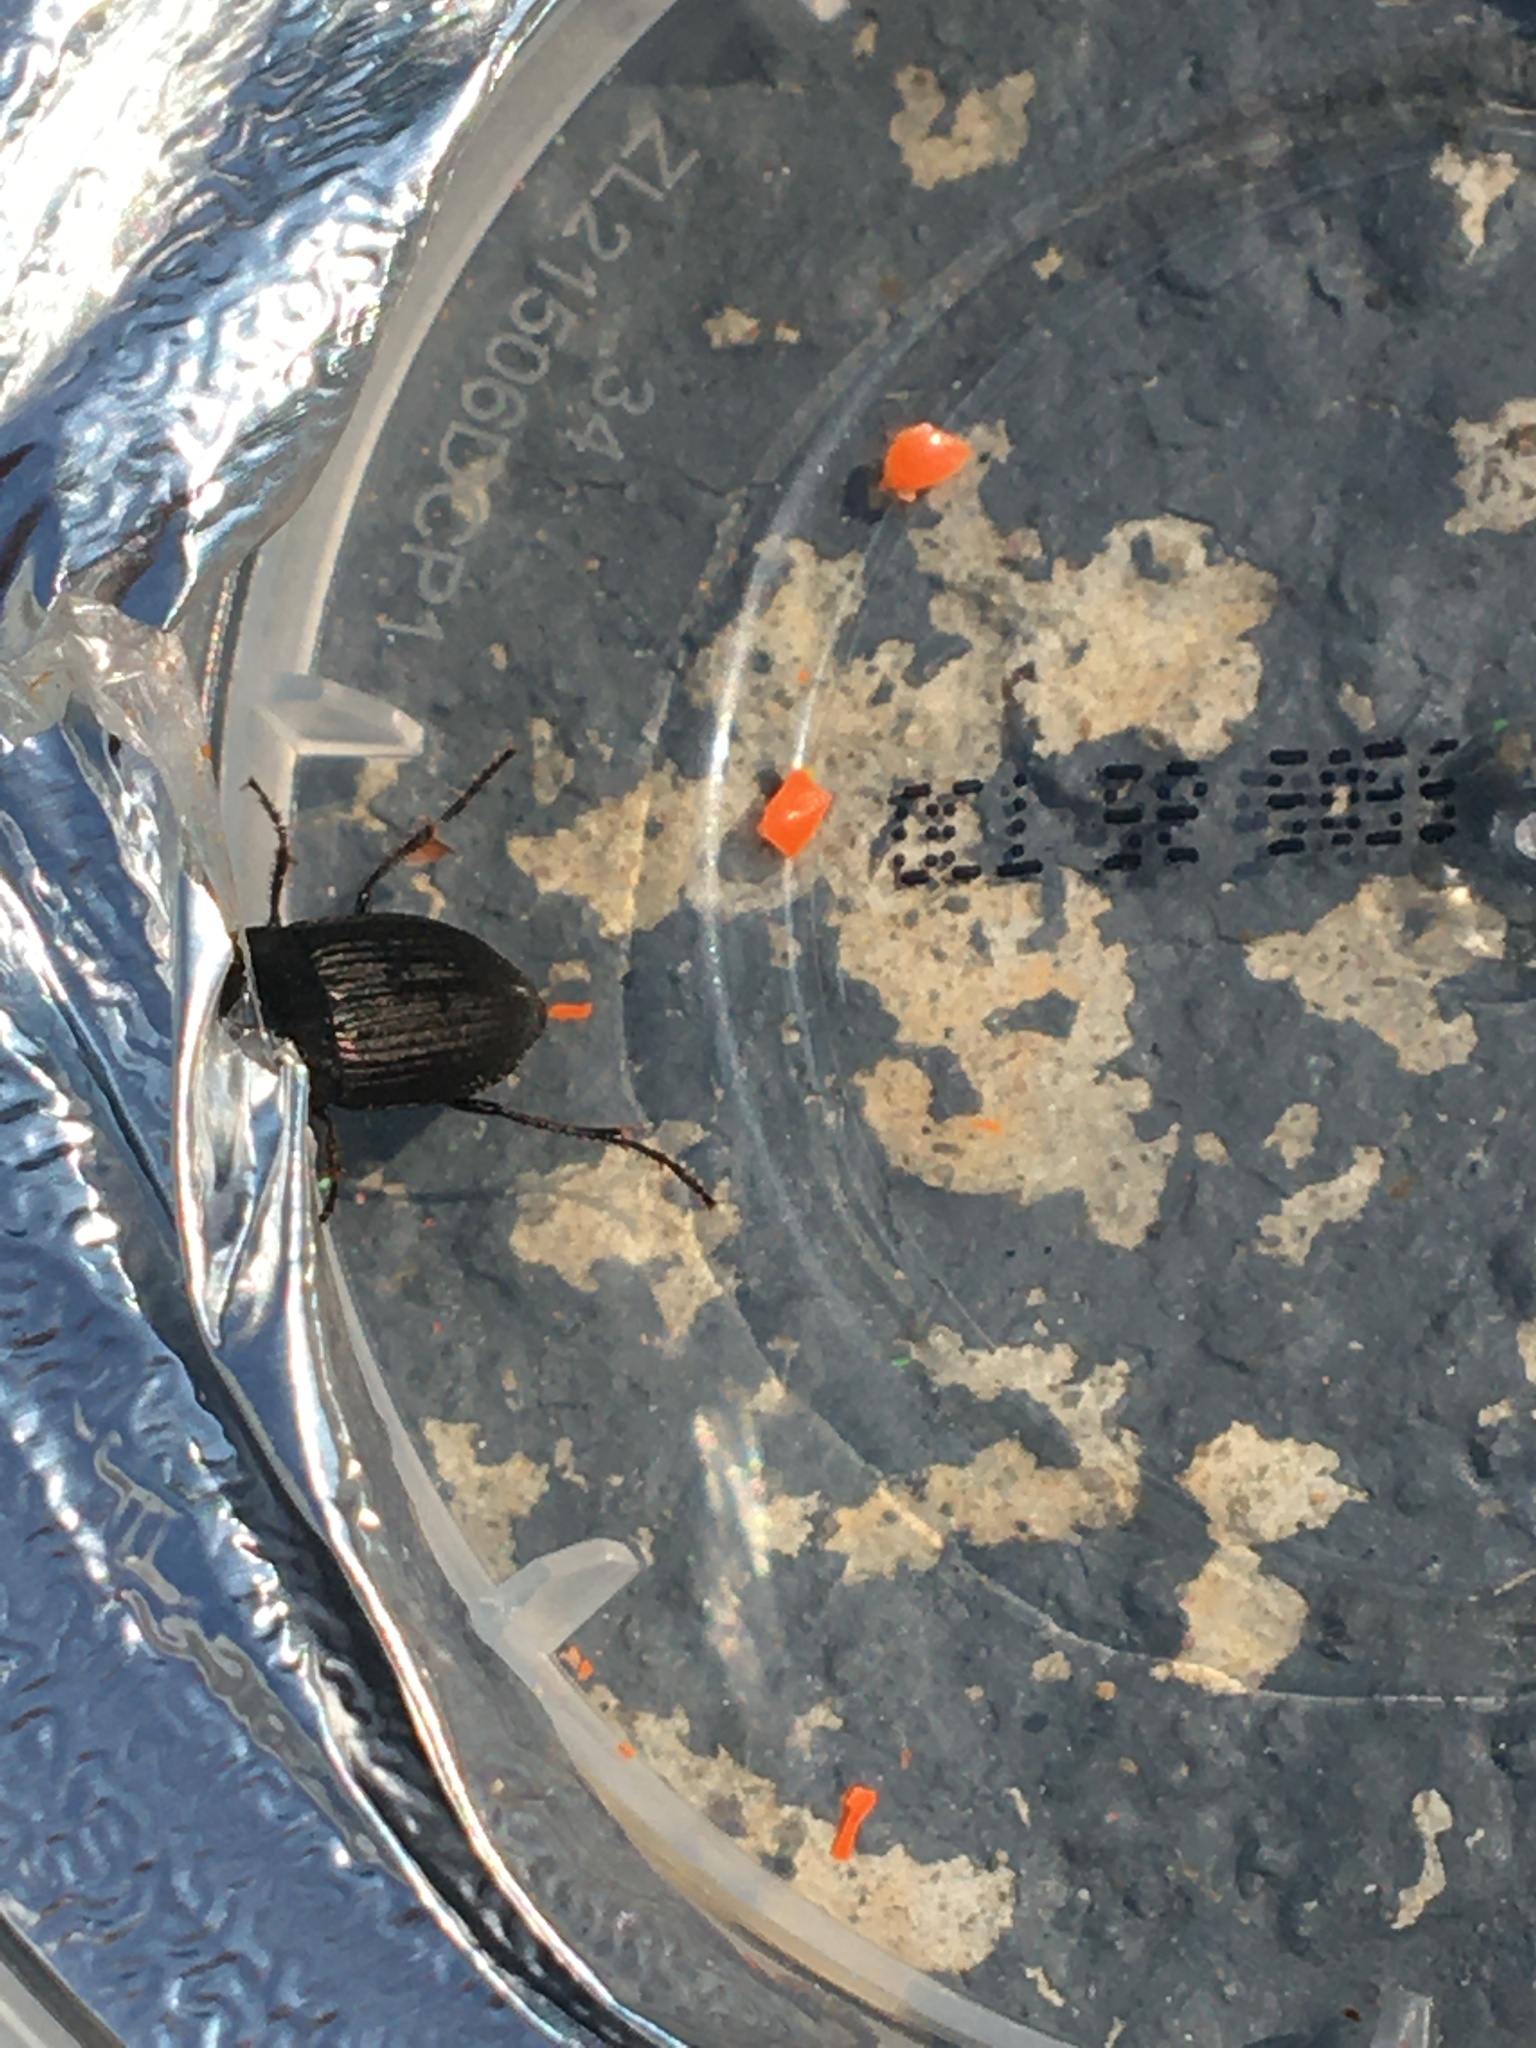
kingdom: Animalia
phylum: Arthropoda
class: Insecta
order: Coleoptera
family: Carabidae
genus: Anisodactylus
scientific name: Anisodactylus rusticus
